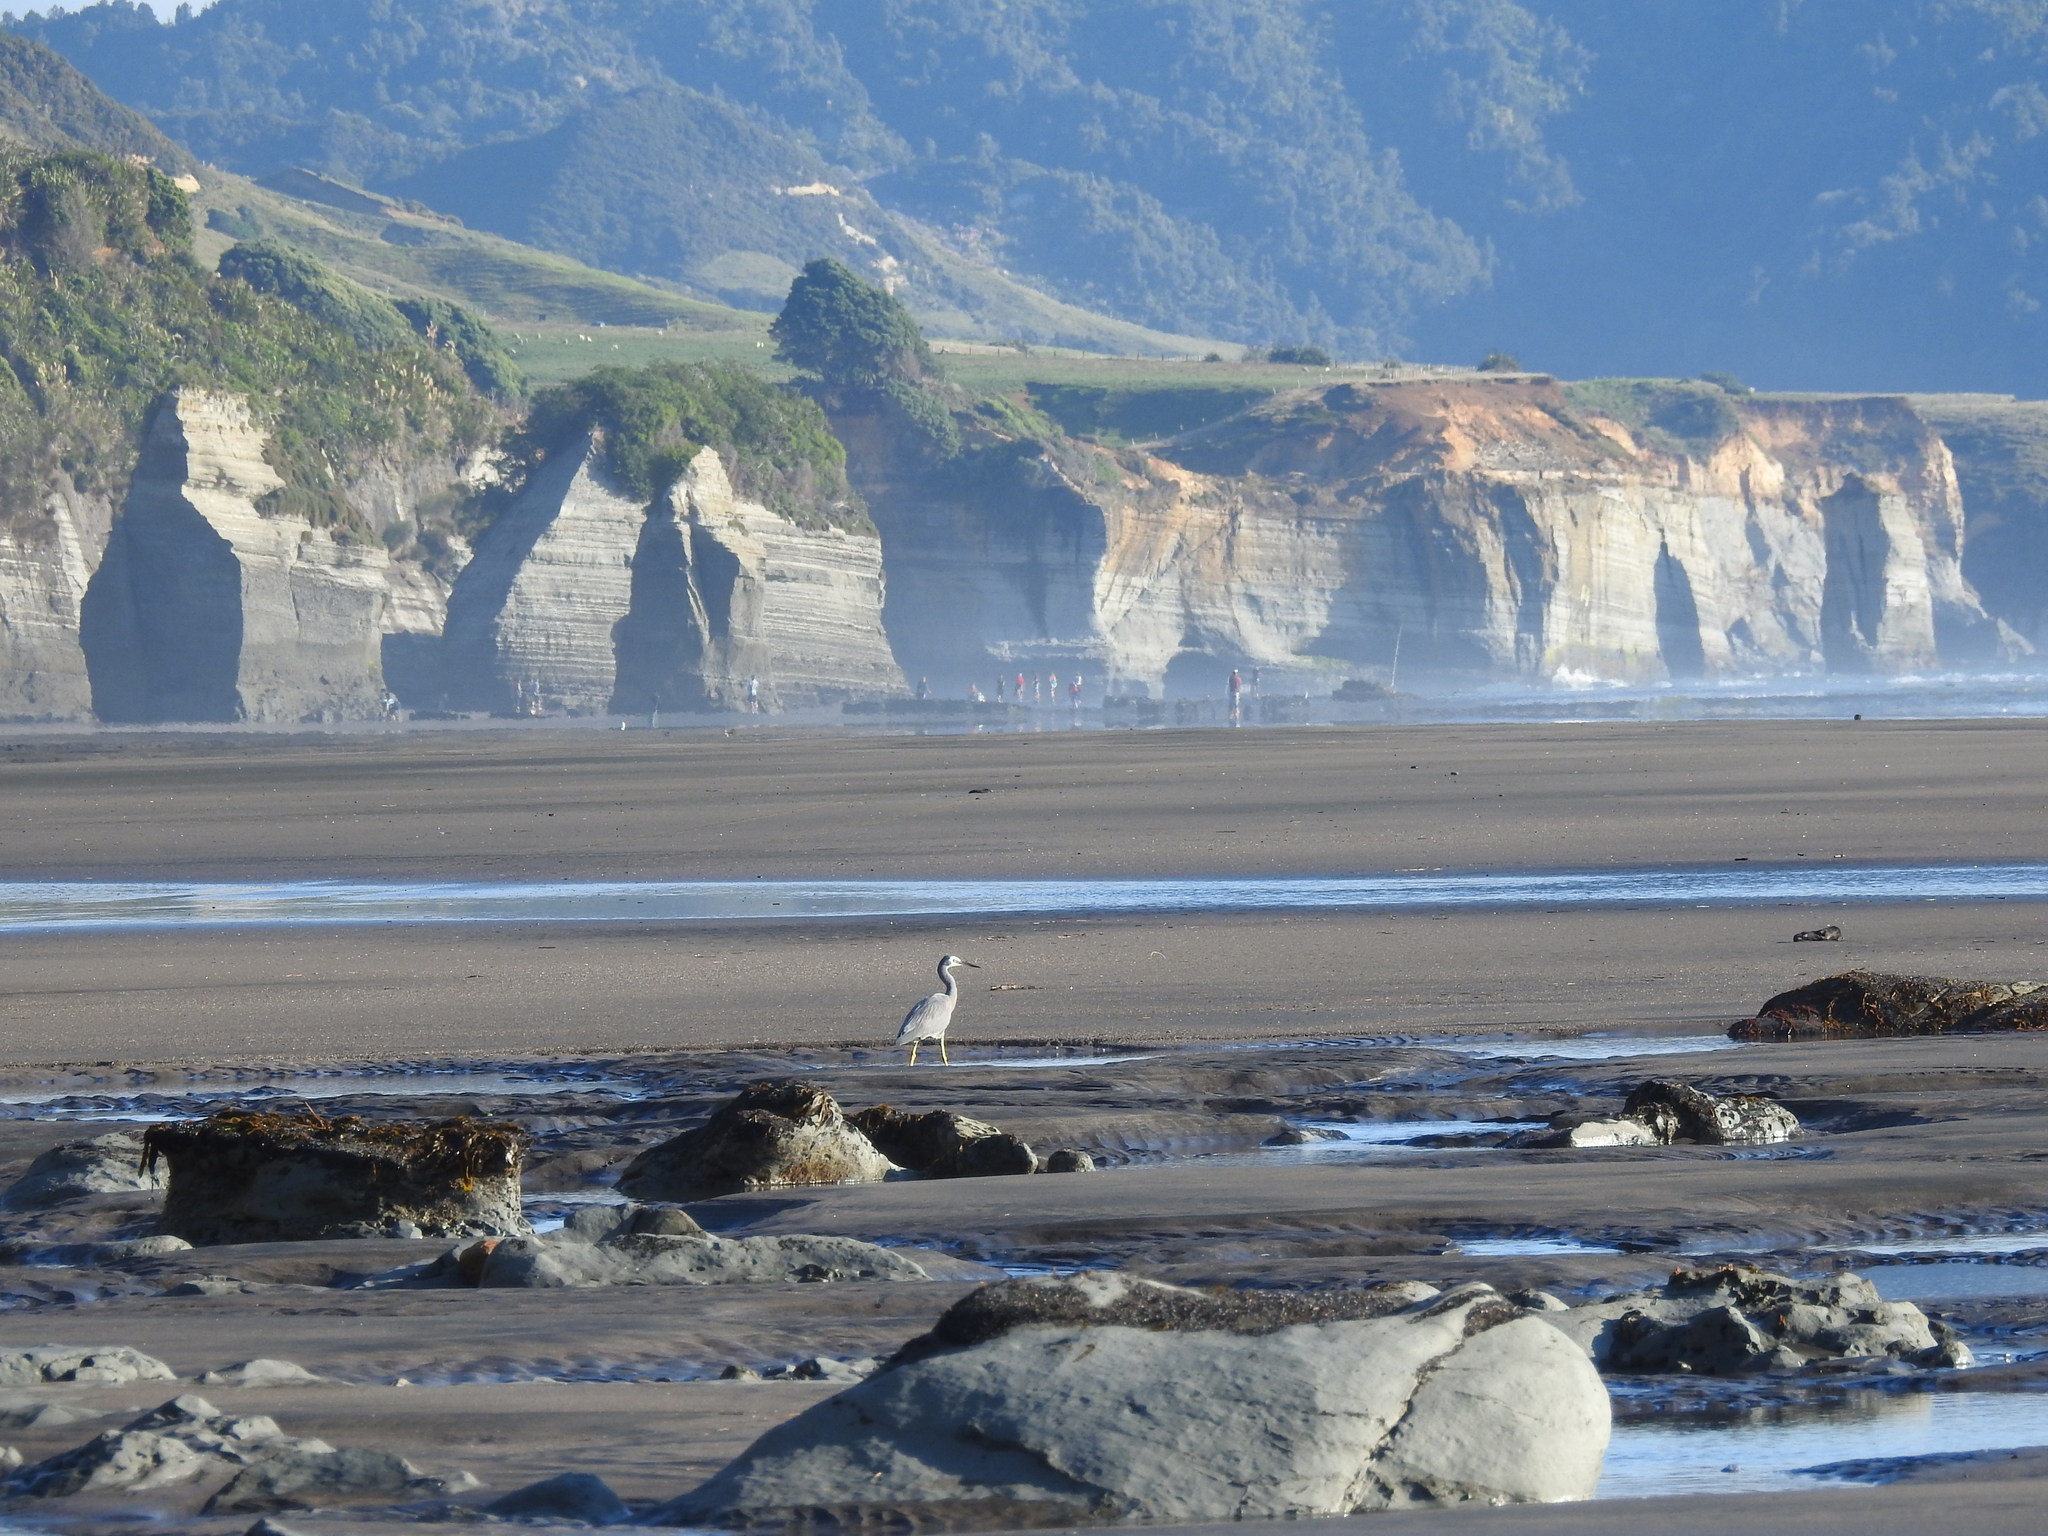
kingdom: Animalia
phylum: Chordata
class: Aves
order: Pelecaniformes
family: Ardeidae
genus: Egretta
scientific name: Egretta novaehollandiae
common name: White-faced heron
